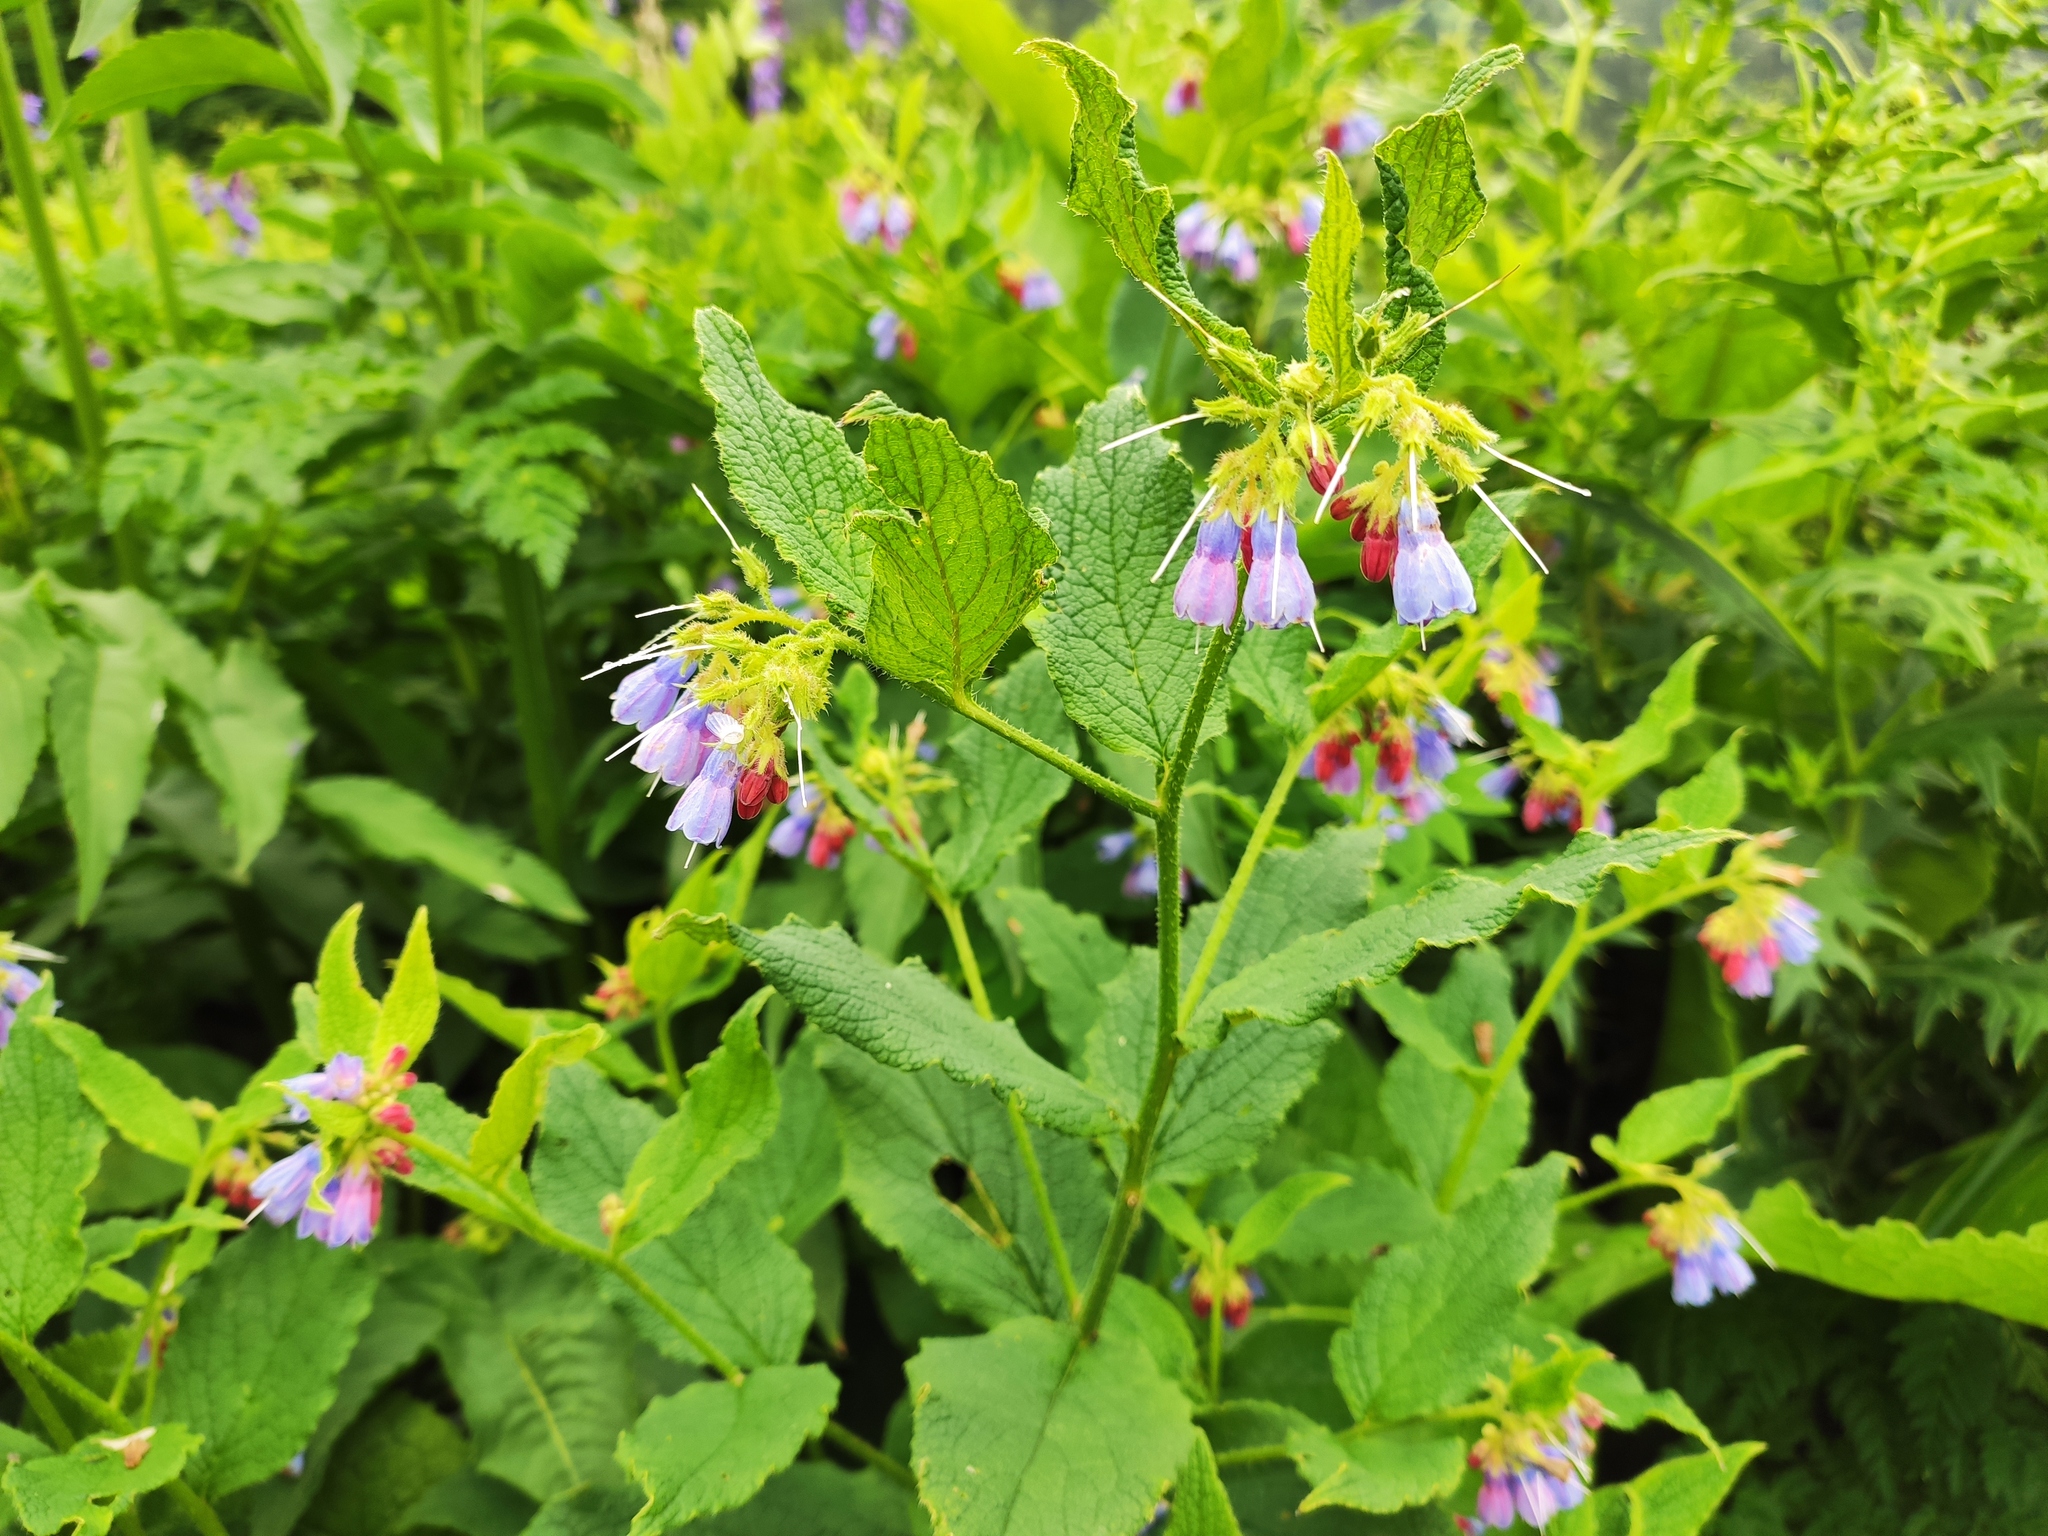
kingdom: Plantae
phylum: Tracheophyta
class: Magnoliopsida
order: Boraginales
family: Boraginaceae
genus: Symphytum
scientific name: Symphytum asperum
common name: Prickly comfrey
